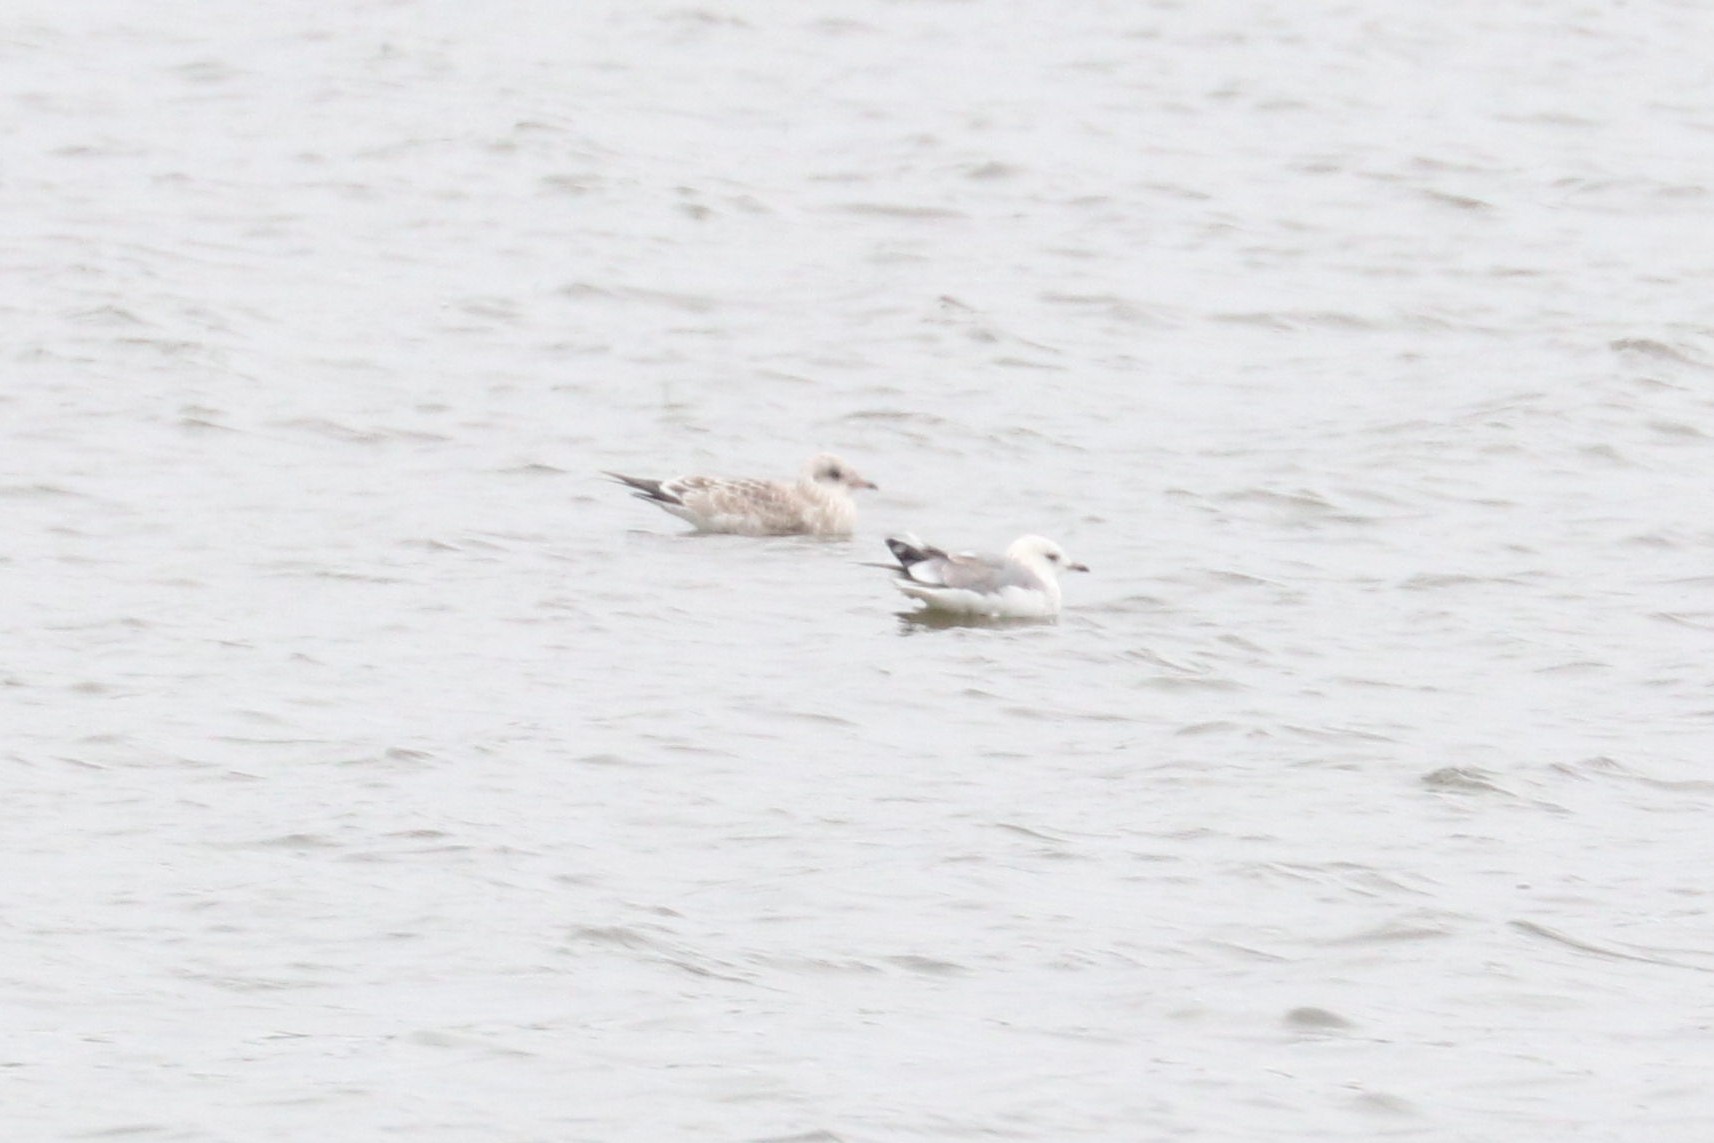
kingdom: Animalia
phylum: Chordata
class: Aves
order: Charadriiformes
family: Laridae
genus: Larus
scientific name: Larus canus
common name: Mew gull
